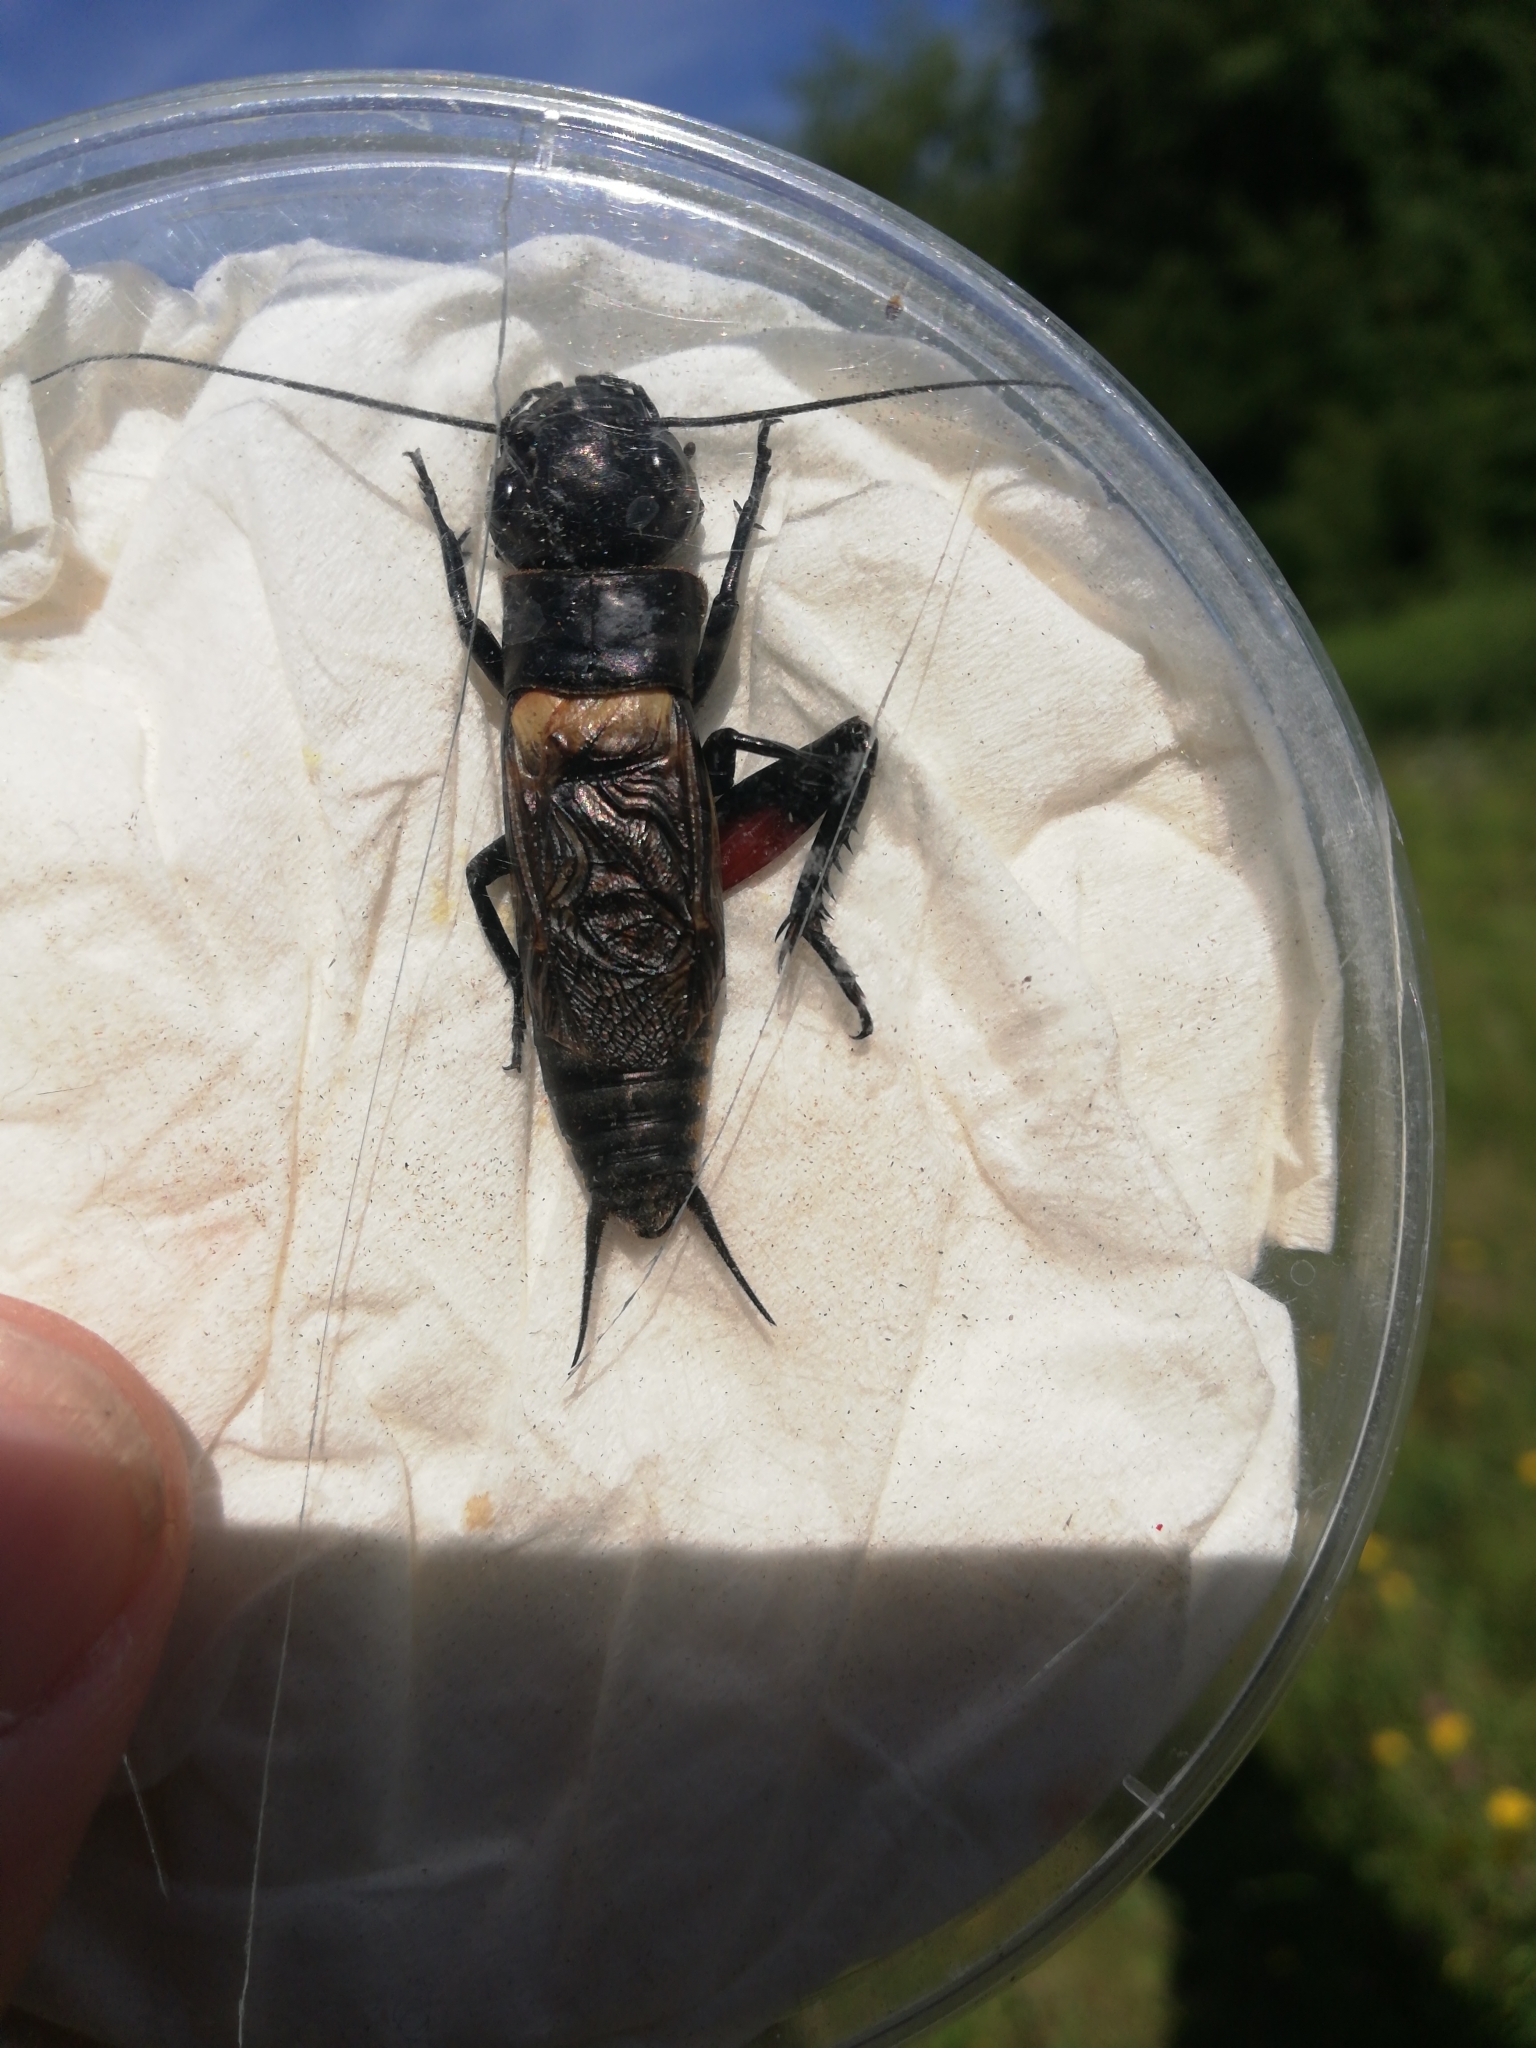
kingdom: Animalia
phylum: Arthropoda
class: Insecta
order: Orthoptera
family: Gryllidae
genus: Gryllus
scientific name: Gryllus campestris
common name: Field cricket
